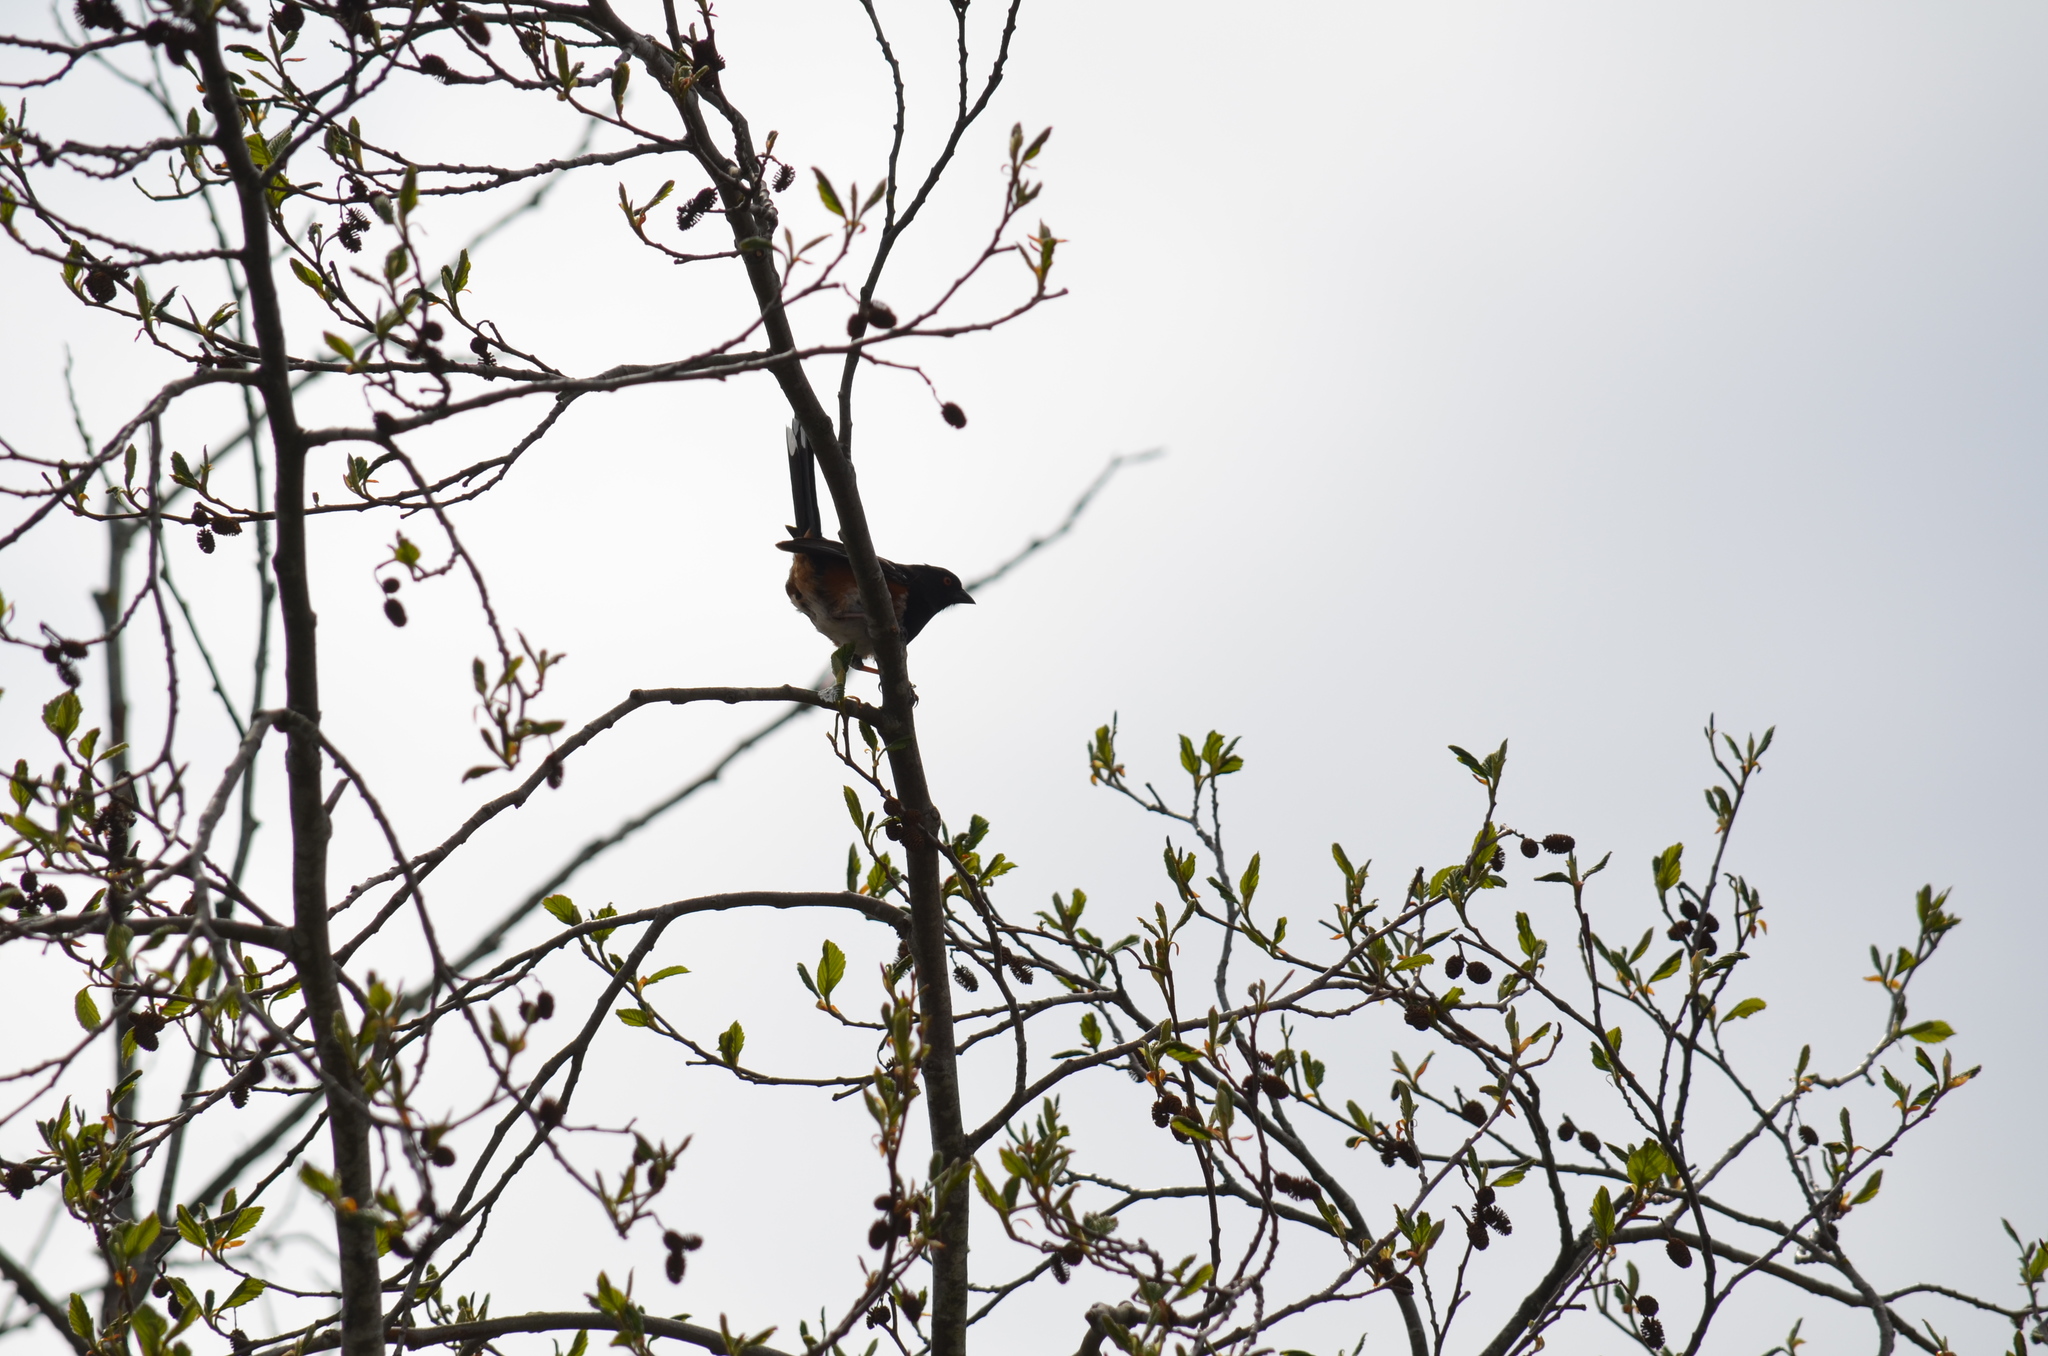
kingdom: Animalia
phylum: Chordata
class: Aves
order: Passeriformes
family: Passerellidae
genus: Pipilo
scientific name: Pipilo maculatus
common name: Spotted towhee
